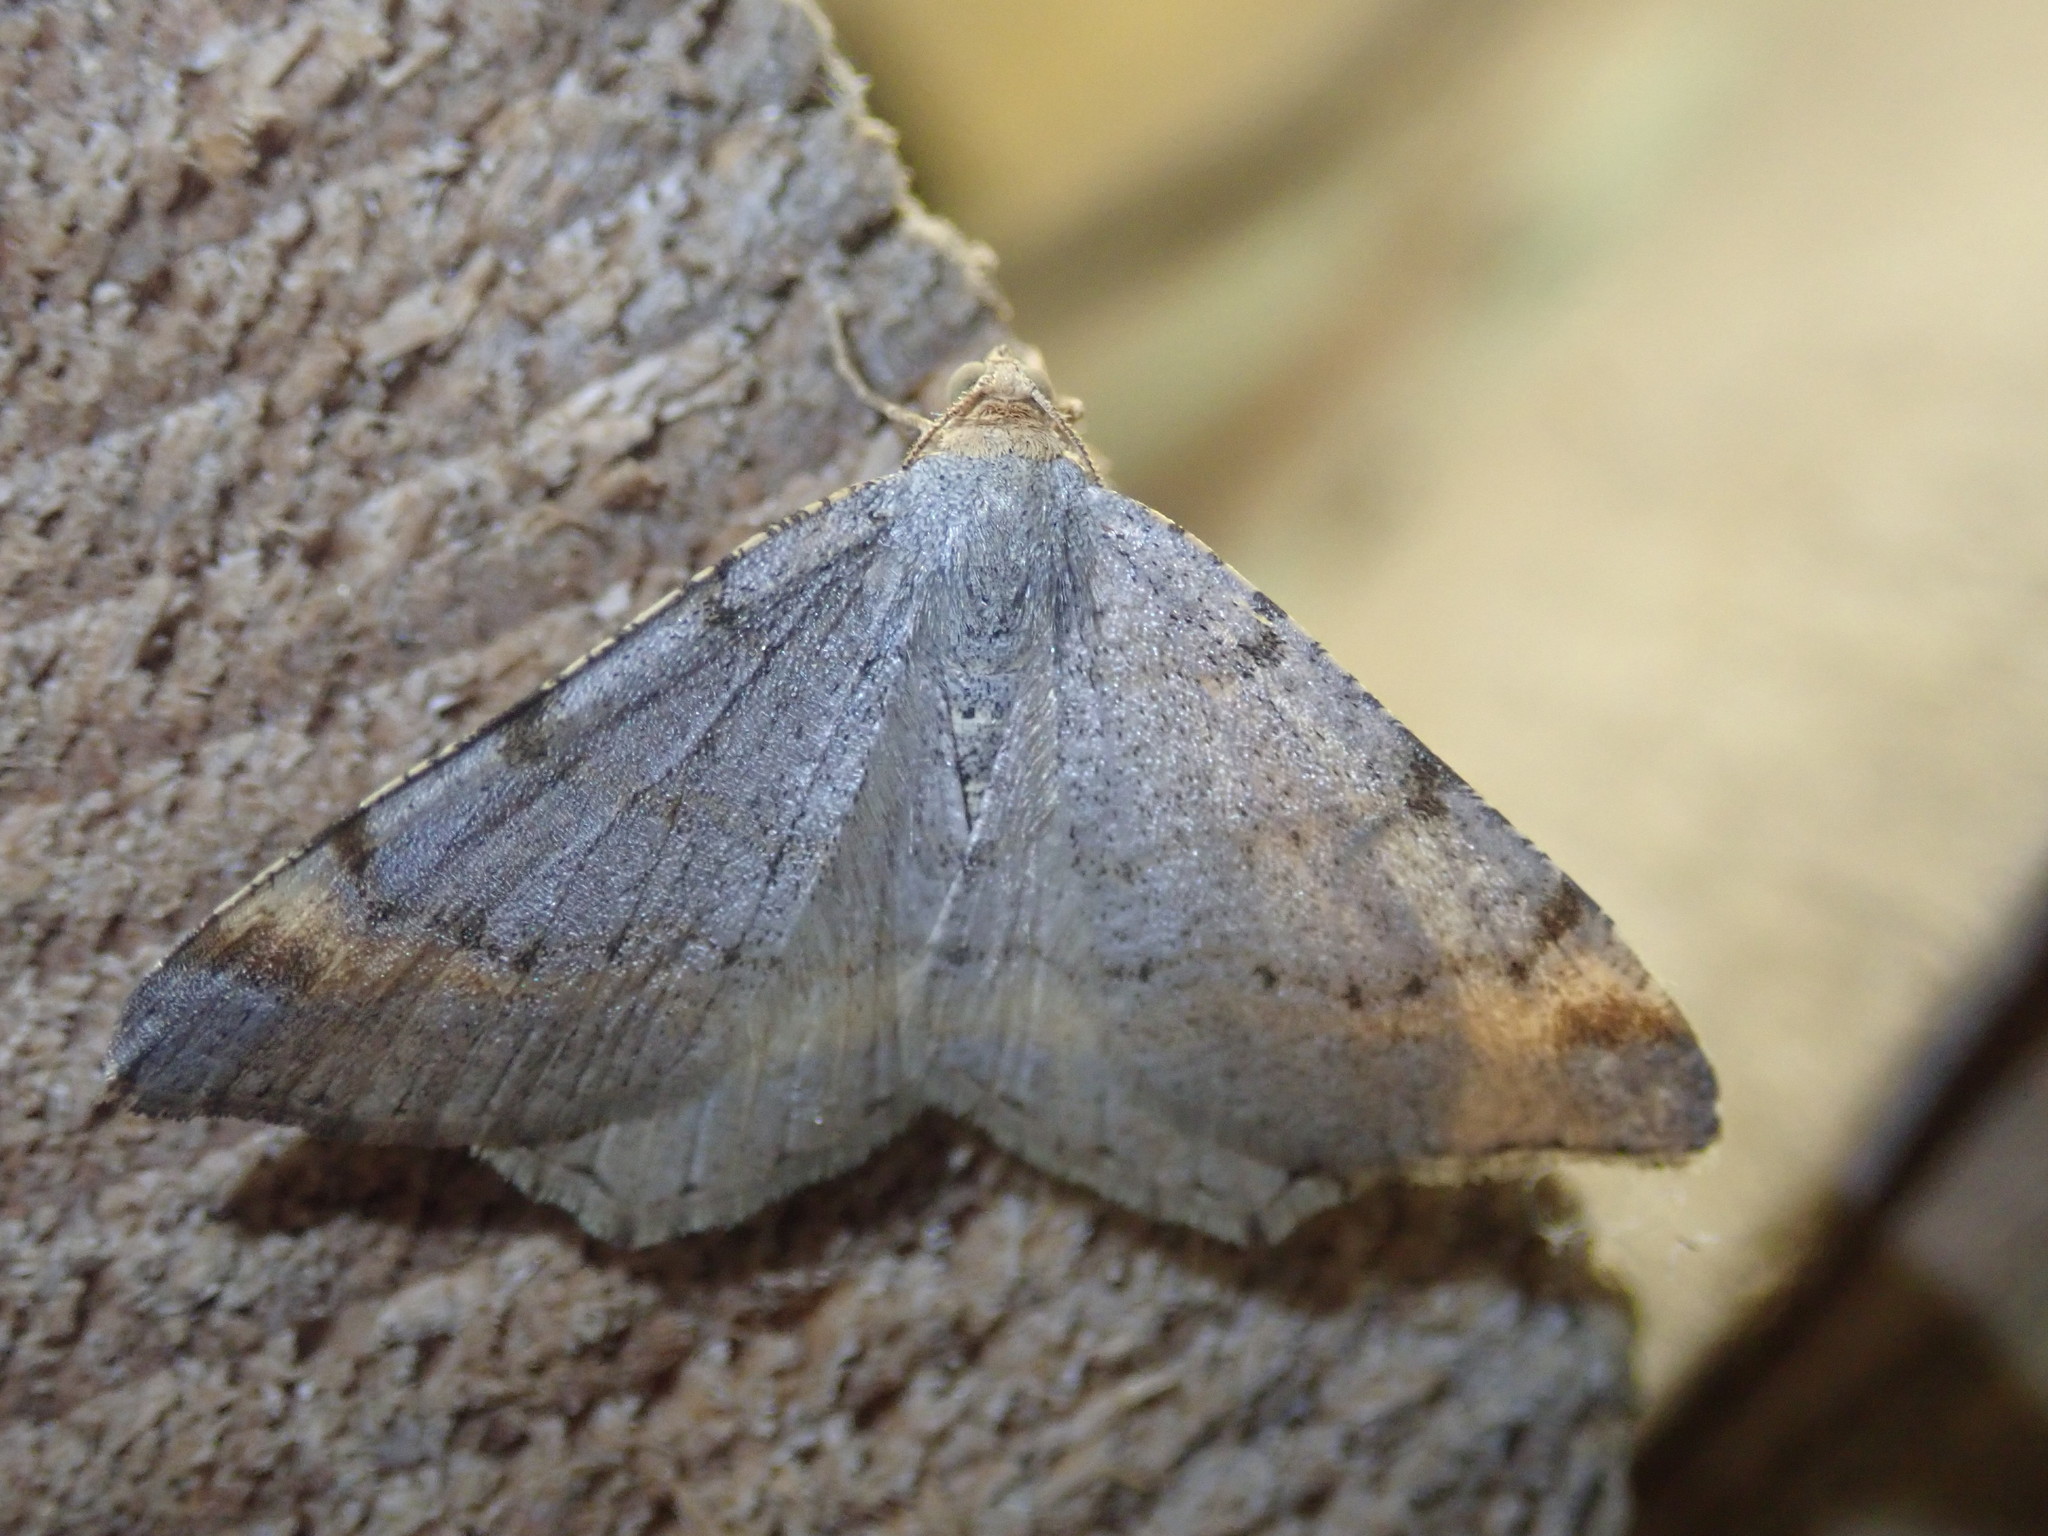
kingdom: Animalia
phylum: Arthropoda
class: Insecta
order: Lepidoptera
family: Geometridae
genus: Macaria
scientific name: Macaria liturata
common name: Tawny-barred angle
